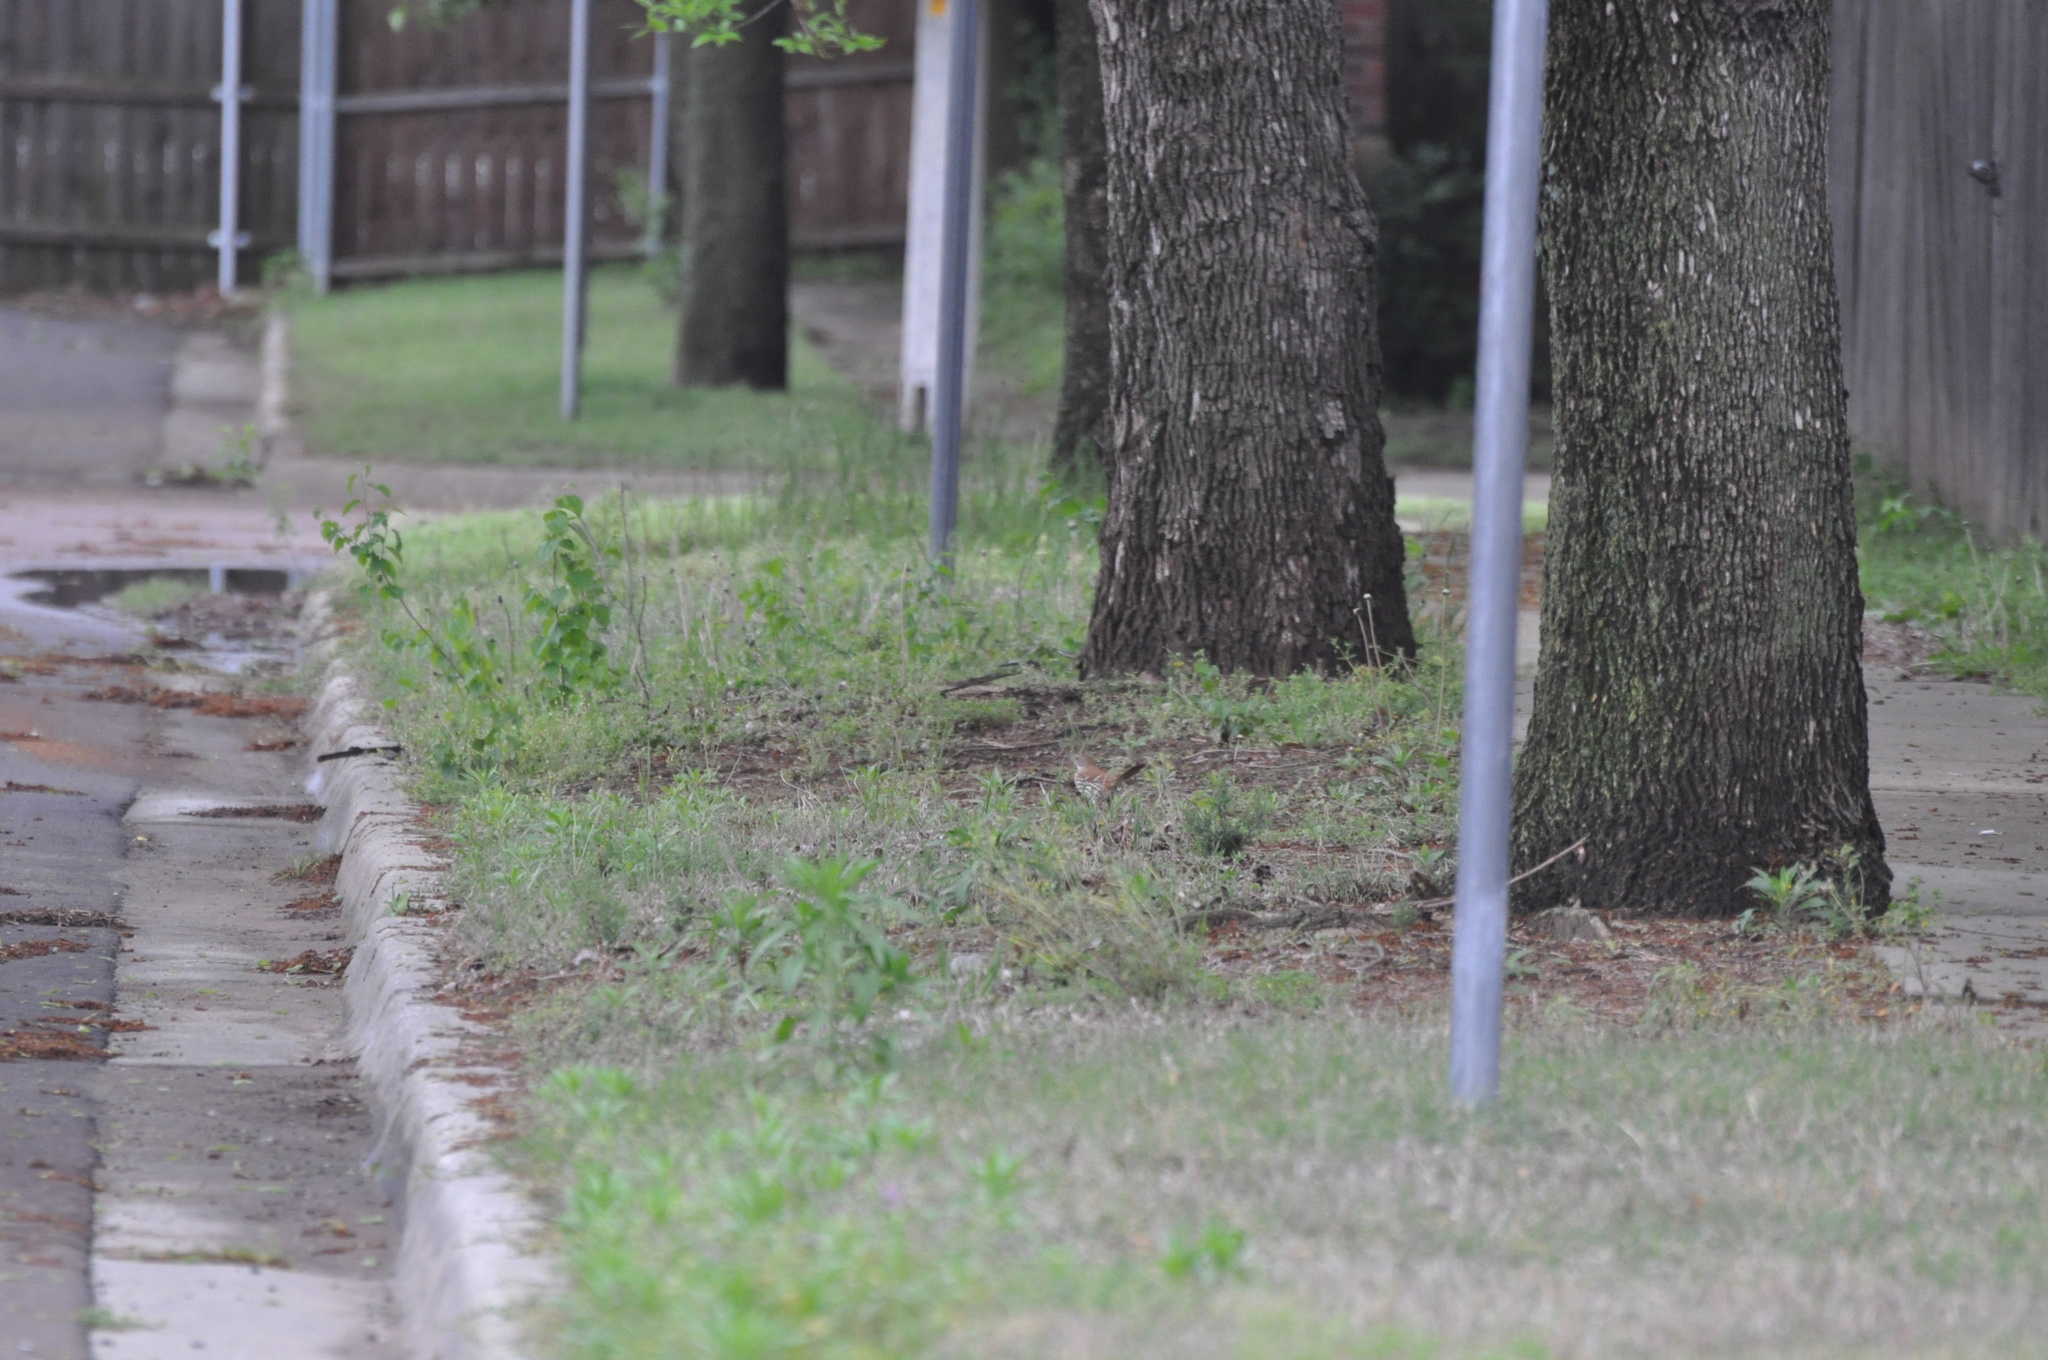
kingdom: Animalia
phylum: Chordata
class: Aves
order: Passeriformes
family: Mimidae
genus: Toxostoma
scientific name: Toxostoma rufum
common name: Brown thrasher
